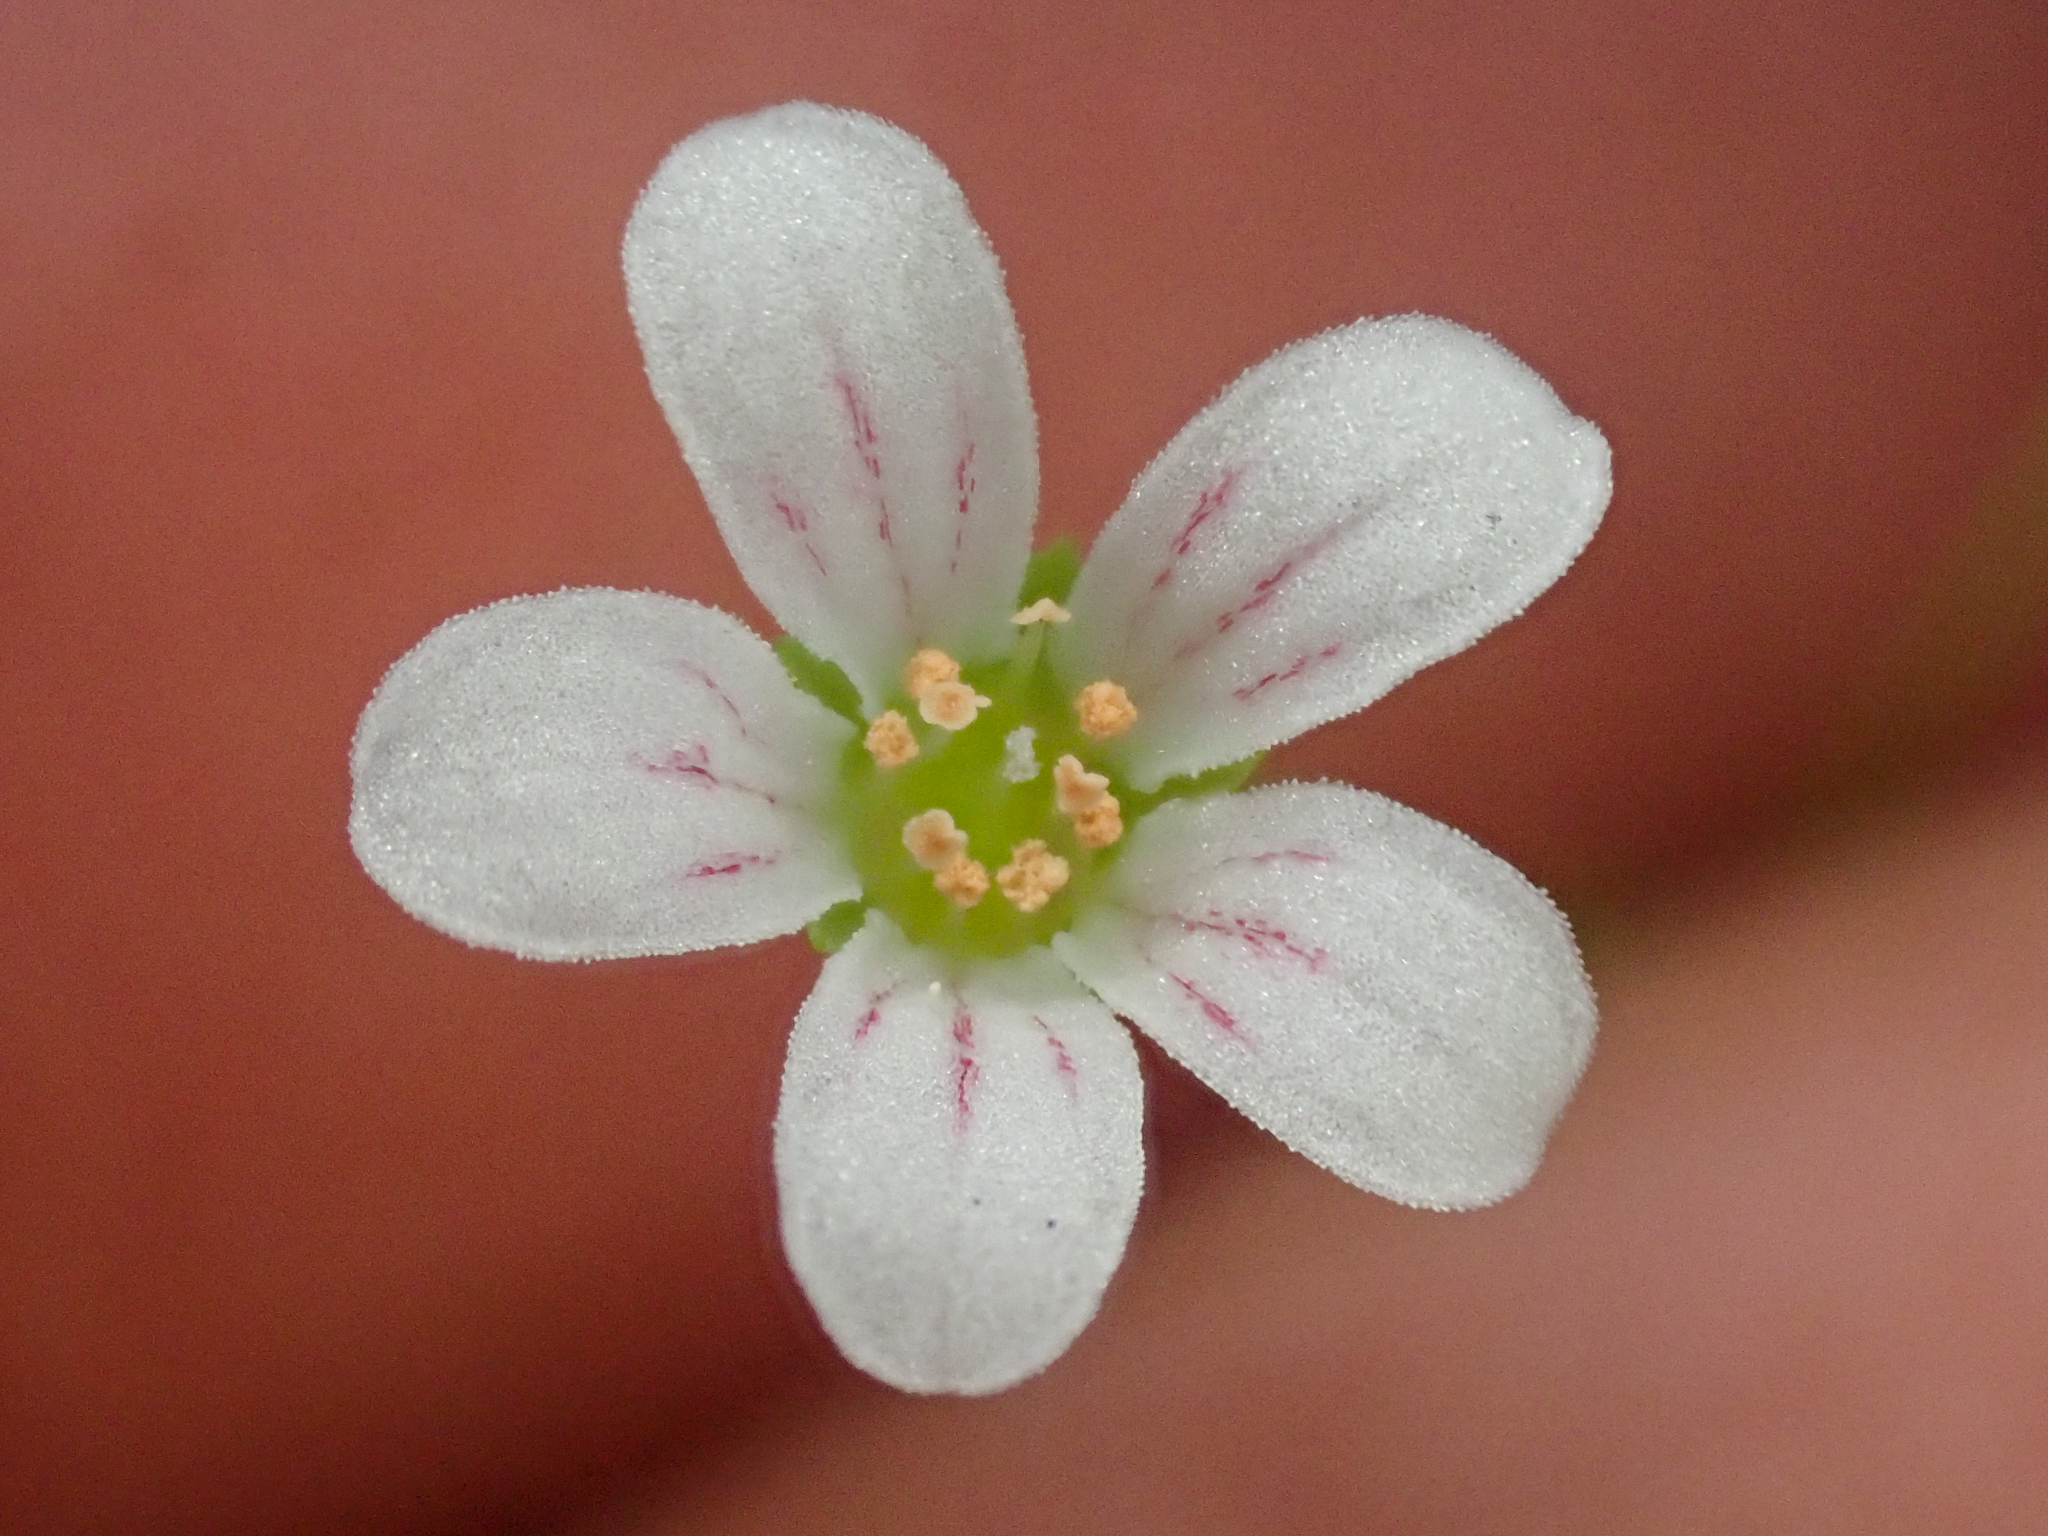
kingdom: Plantae
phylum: Tracheophyta
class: Magnoliopsida
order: Saxifragales
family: Saxifragaceae
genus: Cascadia
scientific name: Cascadia nuttallii
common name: Nuttall's saxifrage
